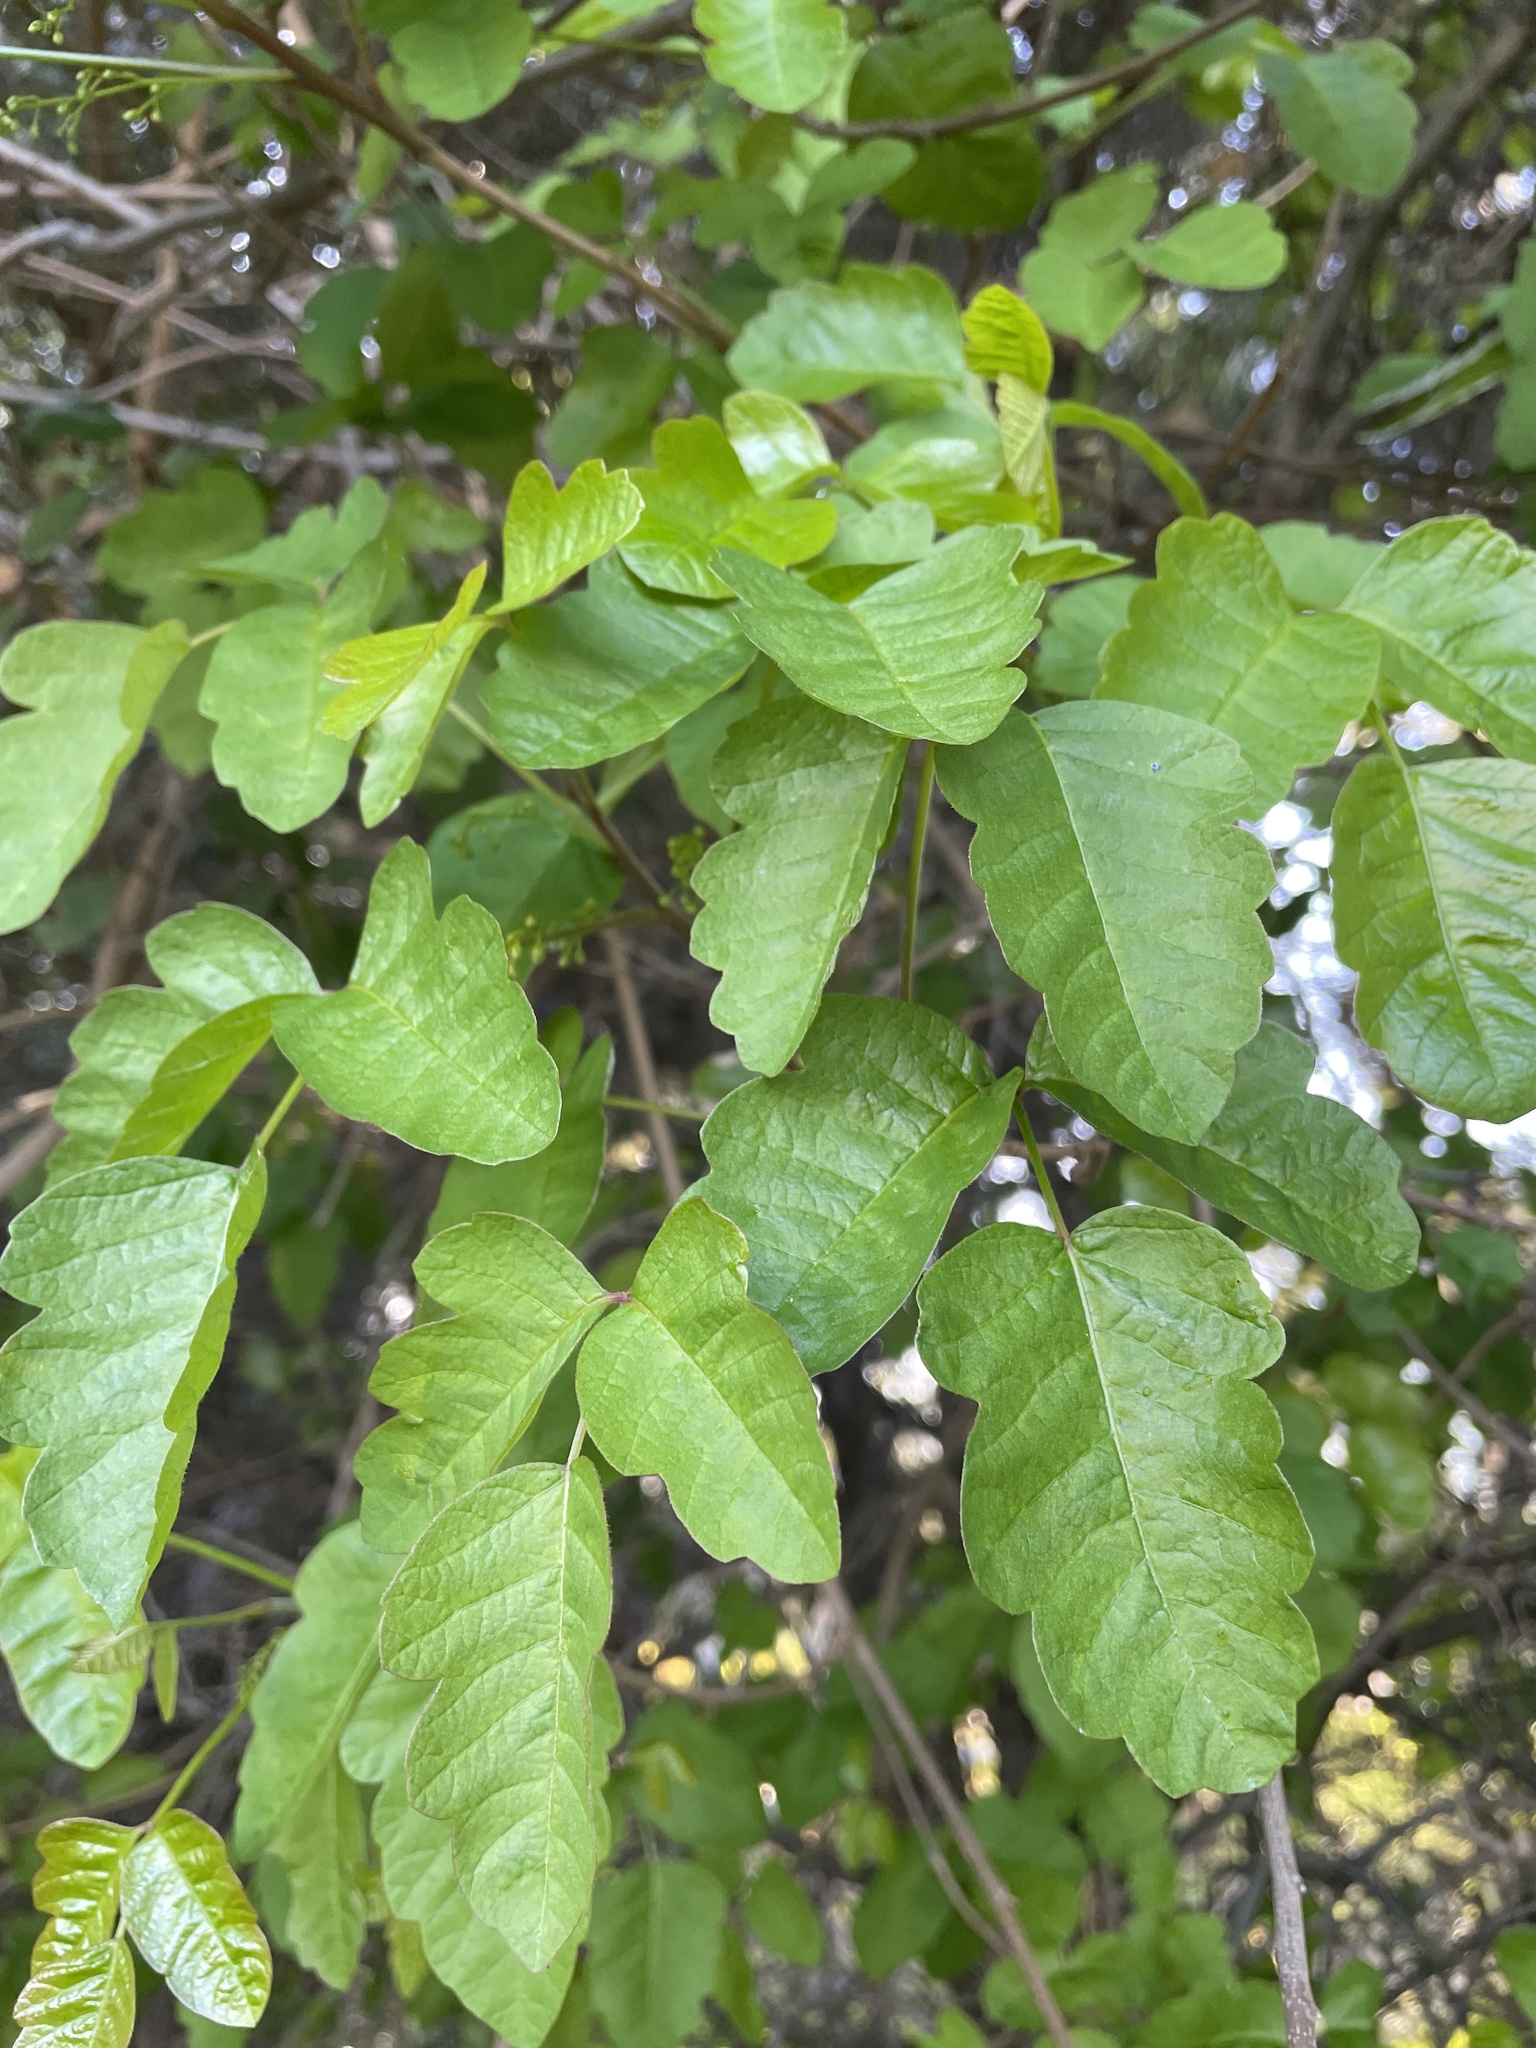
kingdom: Plantae
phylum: Tracheophyta
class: Magnoliopsida
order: Sapindales
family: Anacardiaceae
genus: Toxicodendron
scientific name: Toxicodendron diversilobum
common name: Pacific poison-oak
